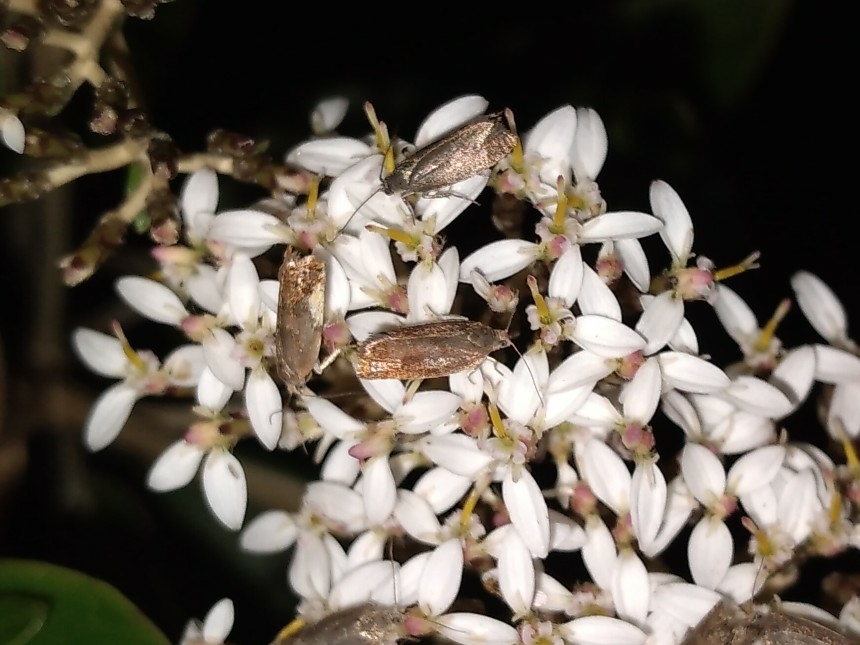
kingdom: Animalia
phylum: Arthropoda
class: Insecta
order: Lepidoptera
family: Tortricidae
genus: Cydia
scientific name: Cydia succedana
